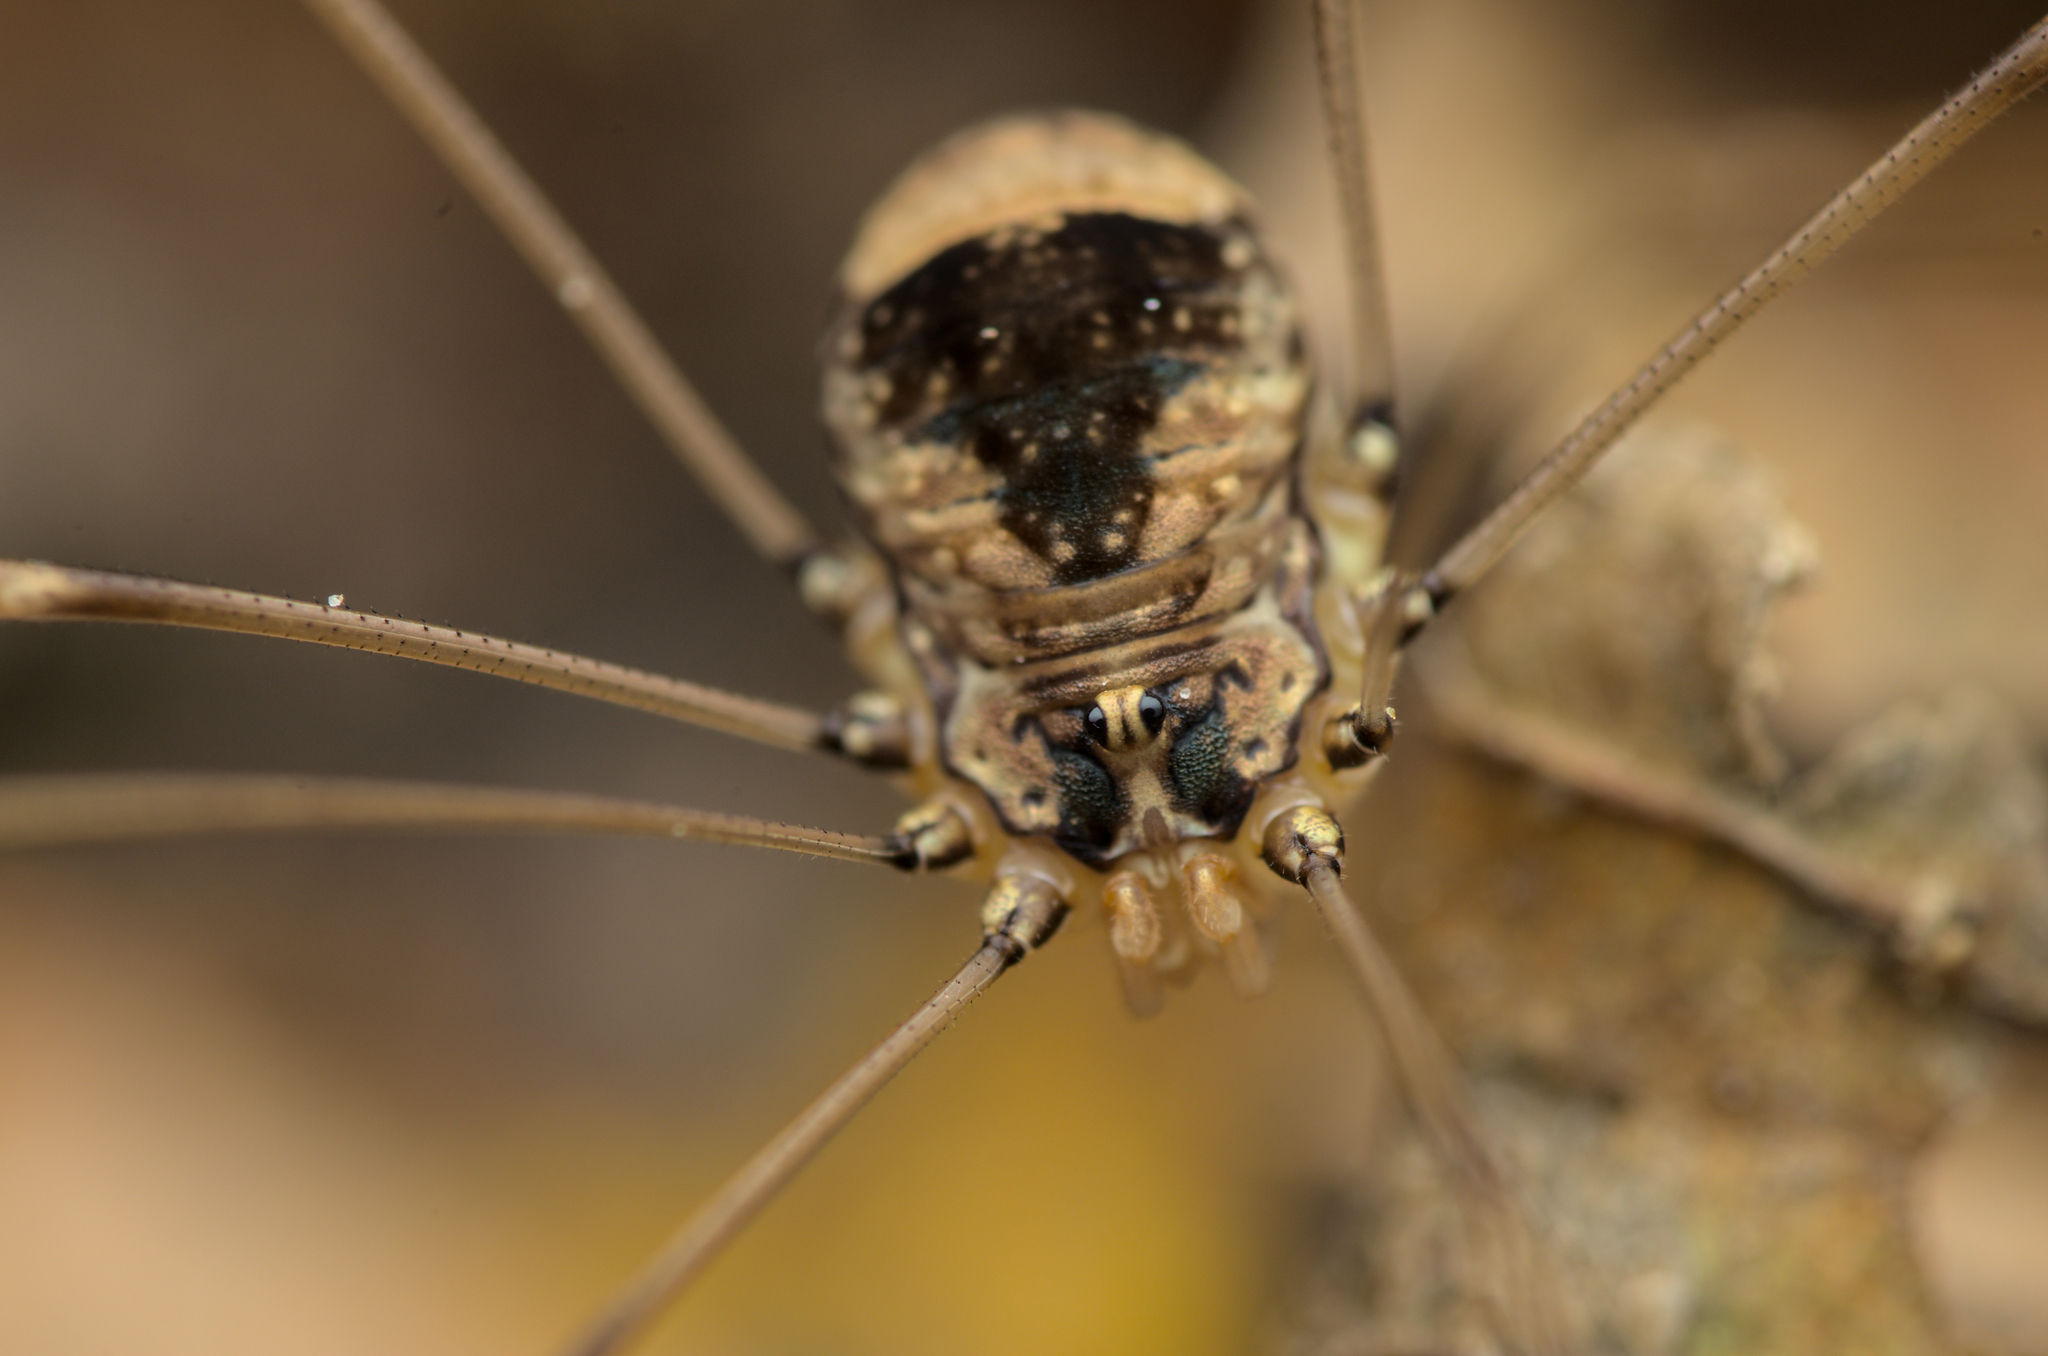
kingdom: Animalia
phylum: Arthropoda
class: Arachnida
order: Opiliones
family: Sclerosomatidae
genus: Leiobunum
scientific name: Leiobunum blackwalli
